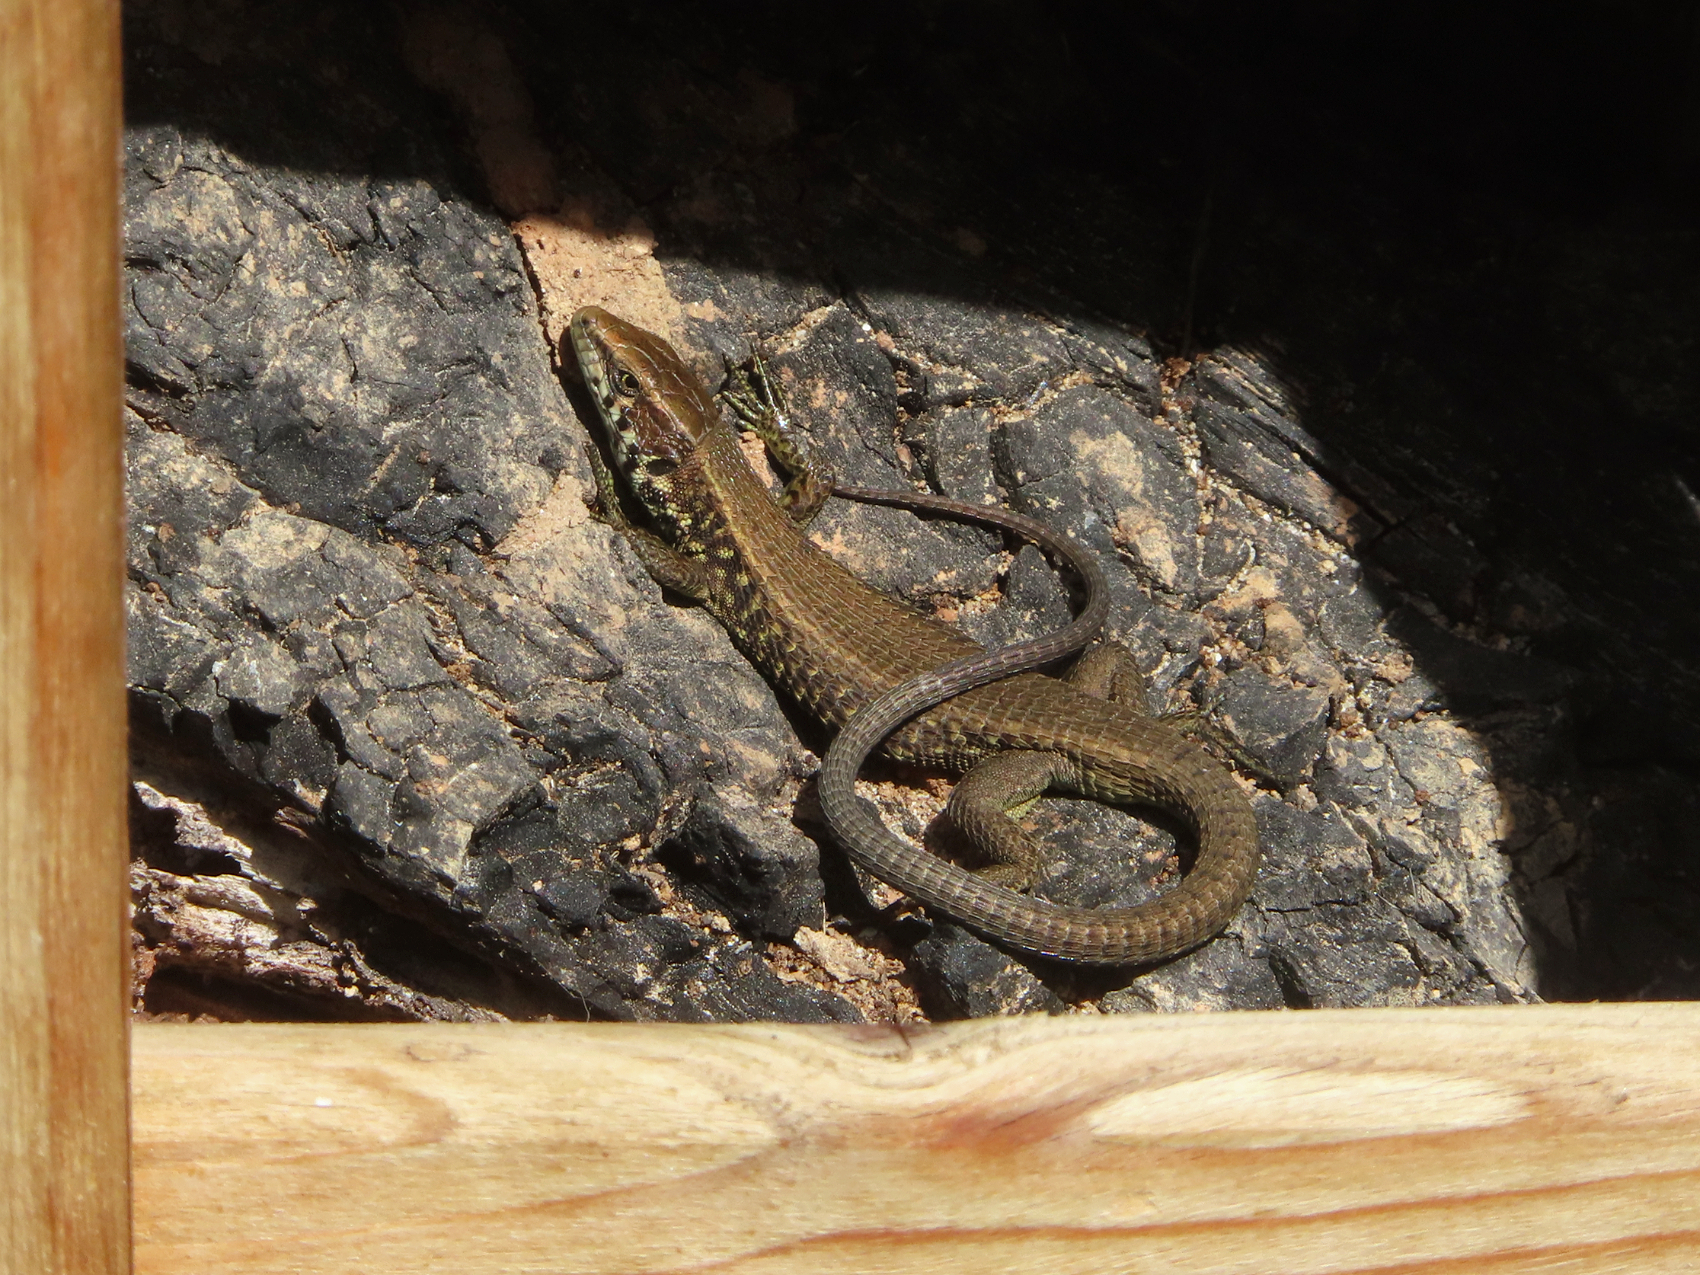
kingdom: Animalia
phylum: Chordata
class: Squamata
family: Lacertidae
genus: Algyroides
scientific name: Algyroides moreoticus
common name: Greek algyroides
